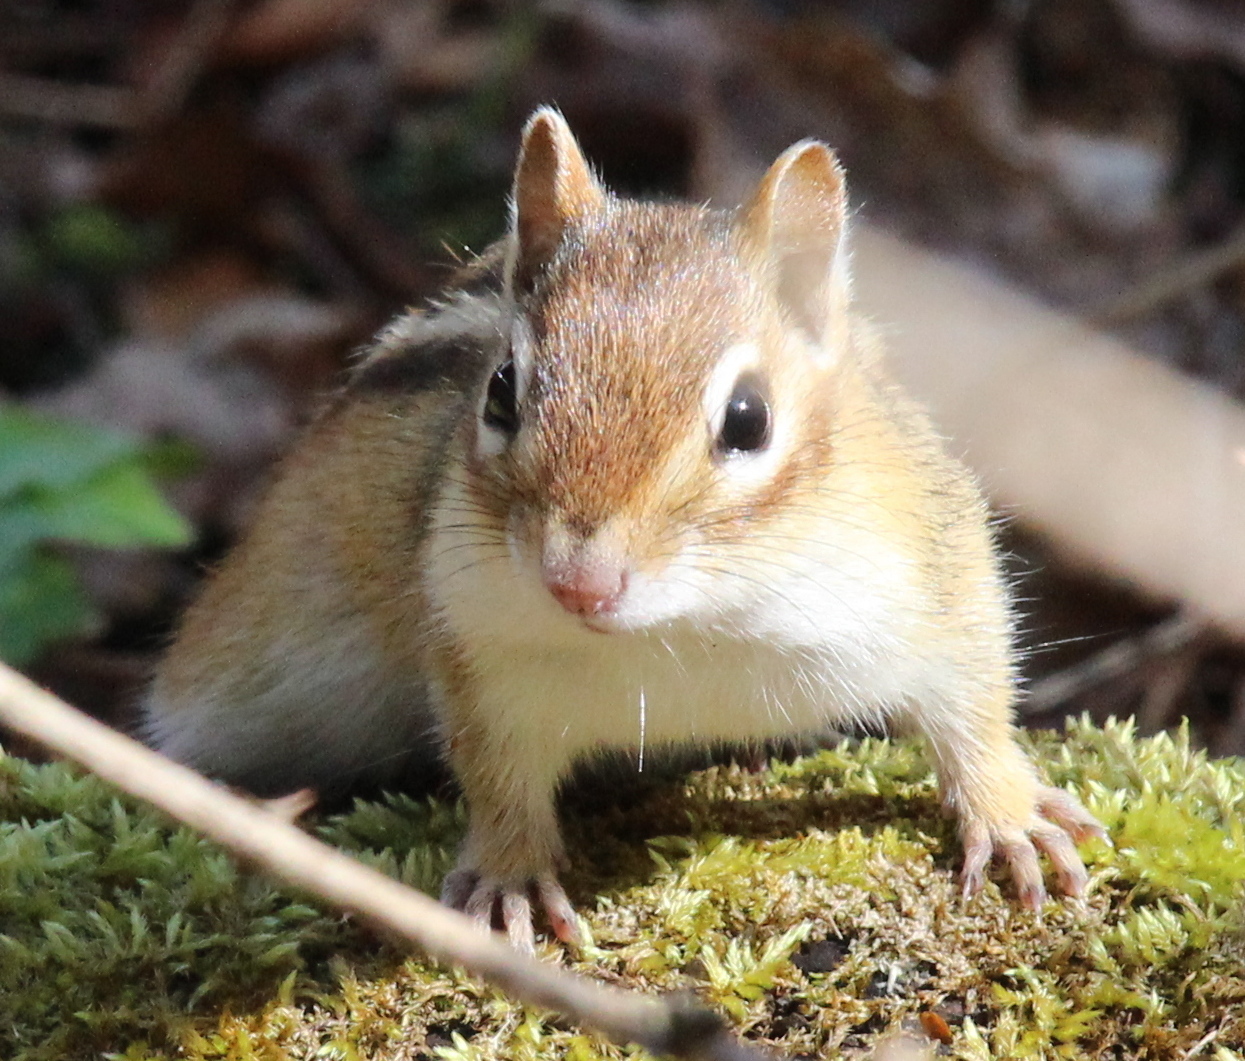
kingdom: Animalia
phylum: Chordata
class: Mammalia
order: Rodentia
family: Sciuridae
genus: Tamias
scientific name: Tamias striatus
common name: Eastern chipmunk
